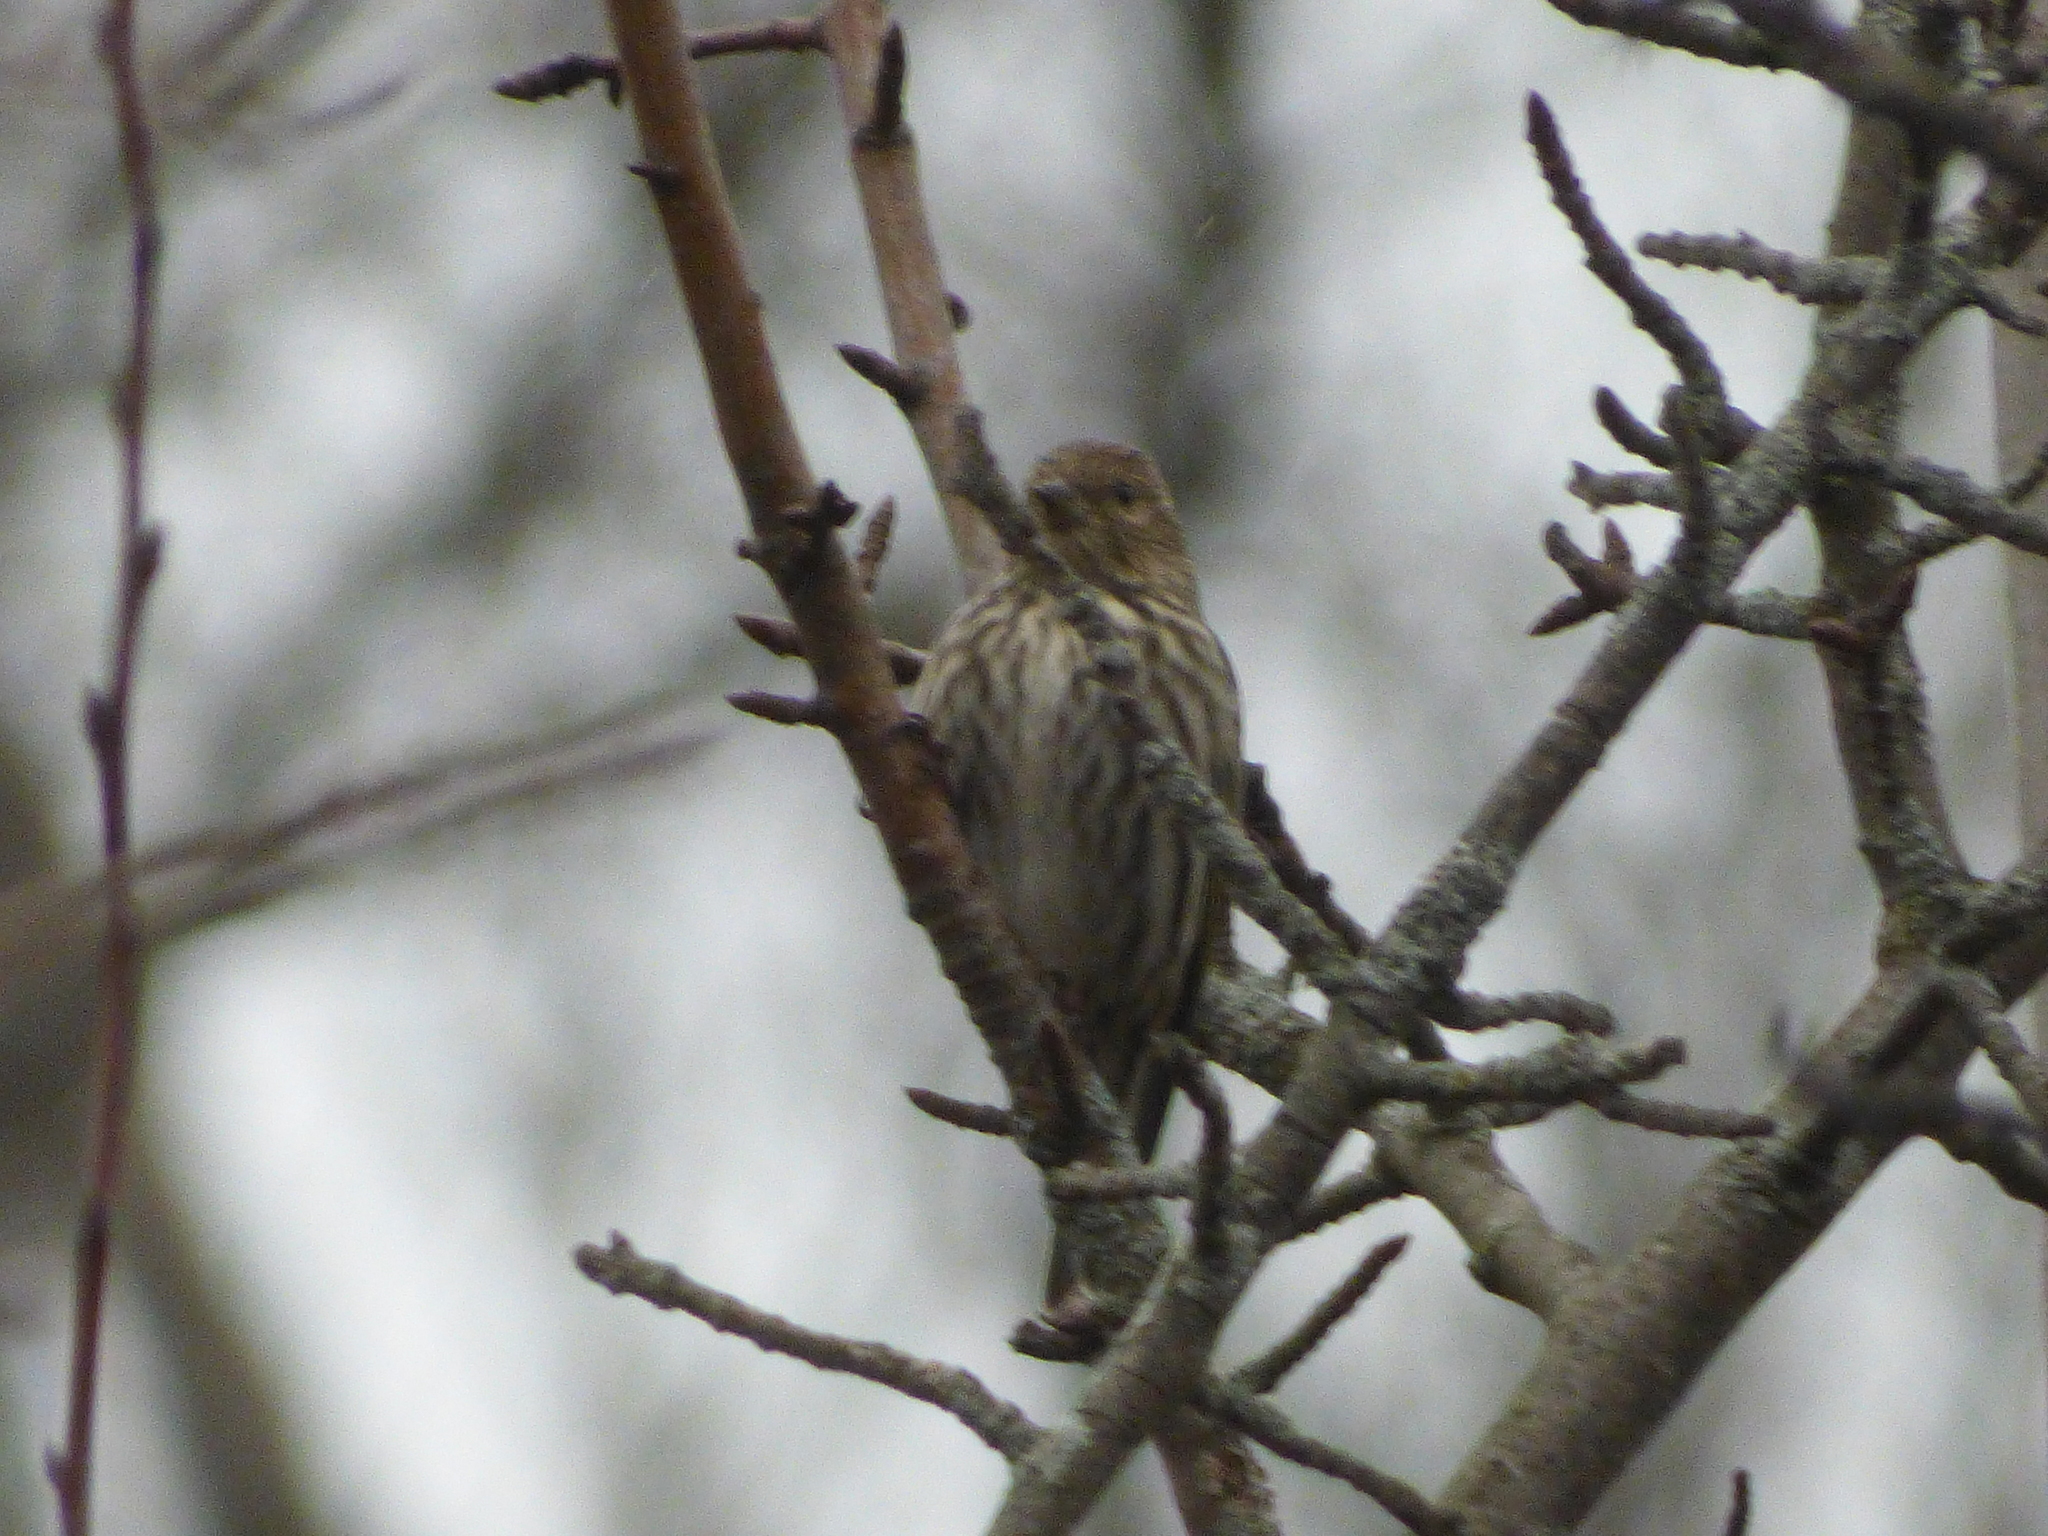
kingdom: Animalia
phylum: Chordata
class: Aves
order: Passeriformes
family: Fringillidae
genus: Spinus
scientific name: Spinus pinus
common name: Pine siskin
